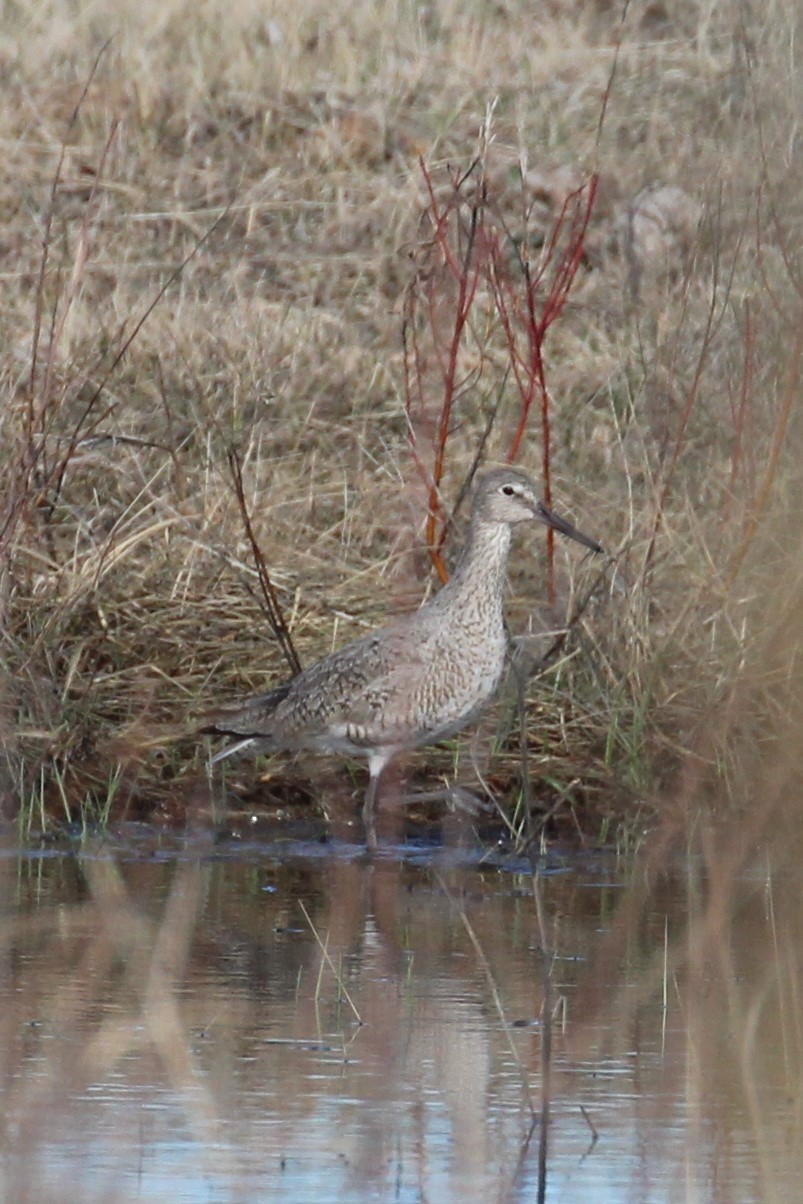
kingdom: Animalia
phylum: Chordata
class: Aves
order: Charadriiformes
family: Scolopacidae
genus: Tringa
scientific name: Tringa semipalmata
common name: Willet
